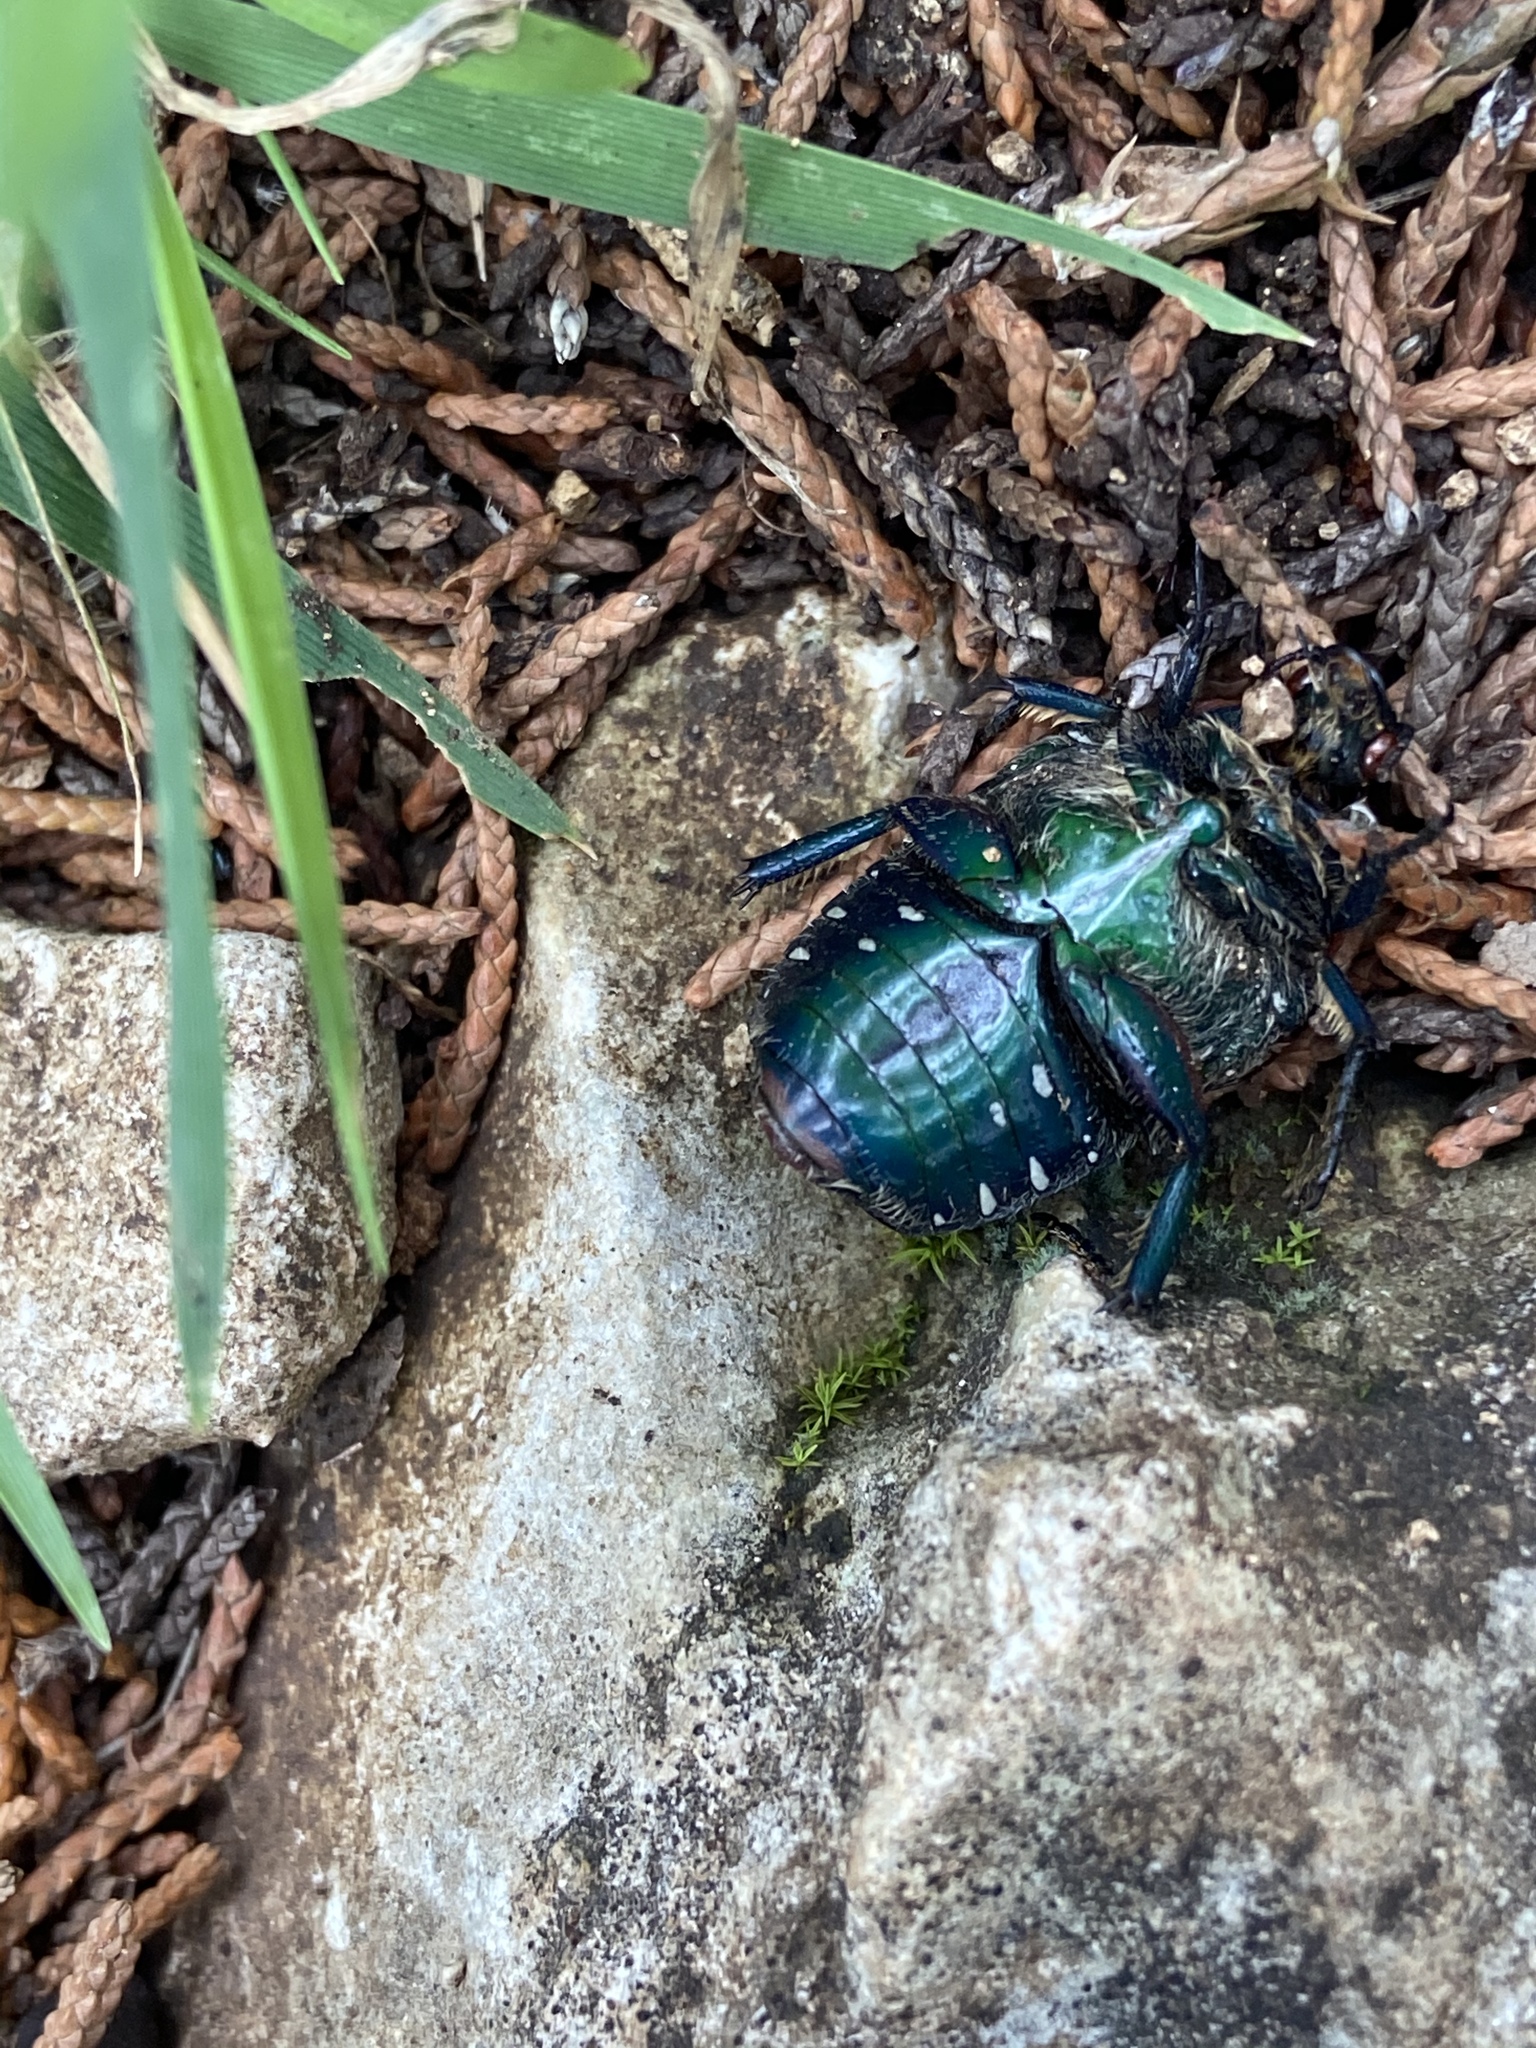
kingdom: Animalia
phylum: Arthropoda
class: Insecta
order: Coleoptera
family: Scarabaeidae
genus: Euphoria
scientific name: Euphoria fulgida
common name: Emerald euphoria
